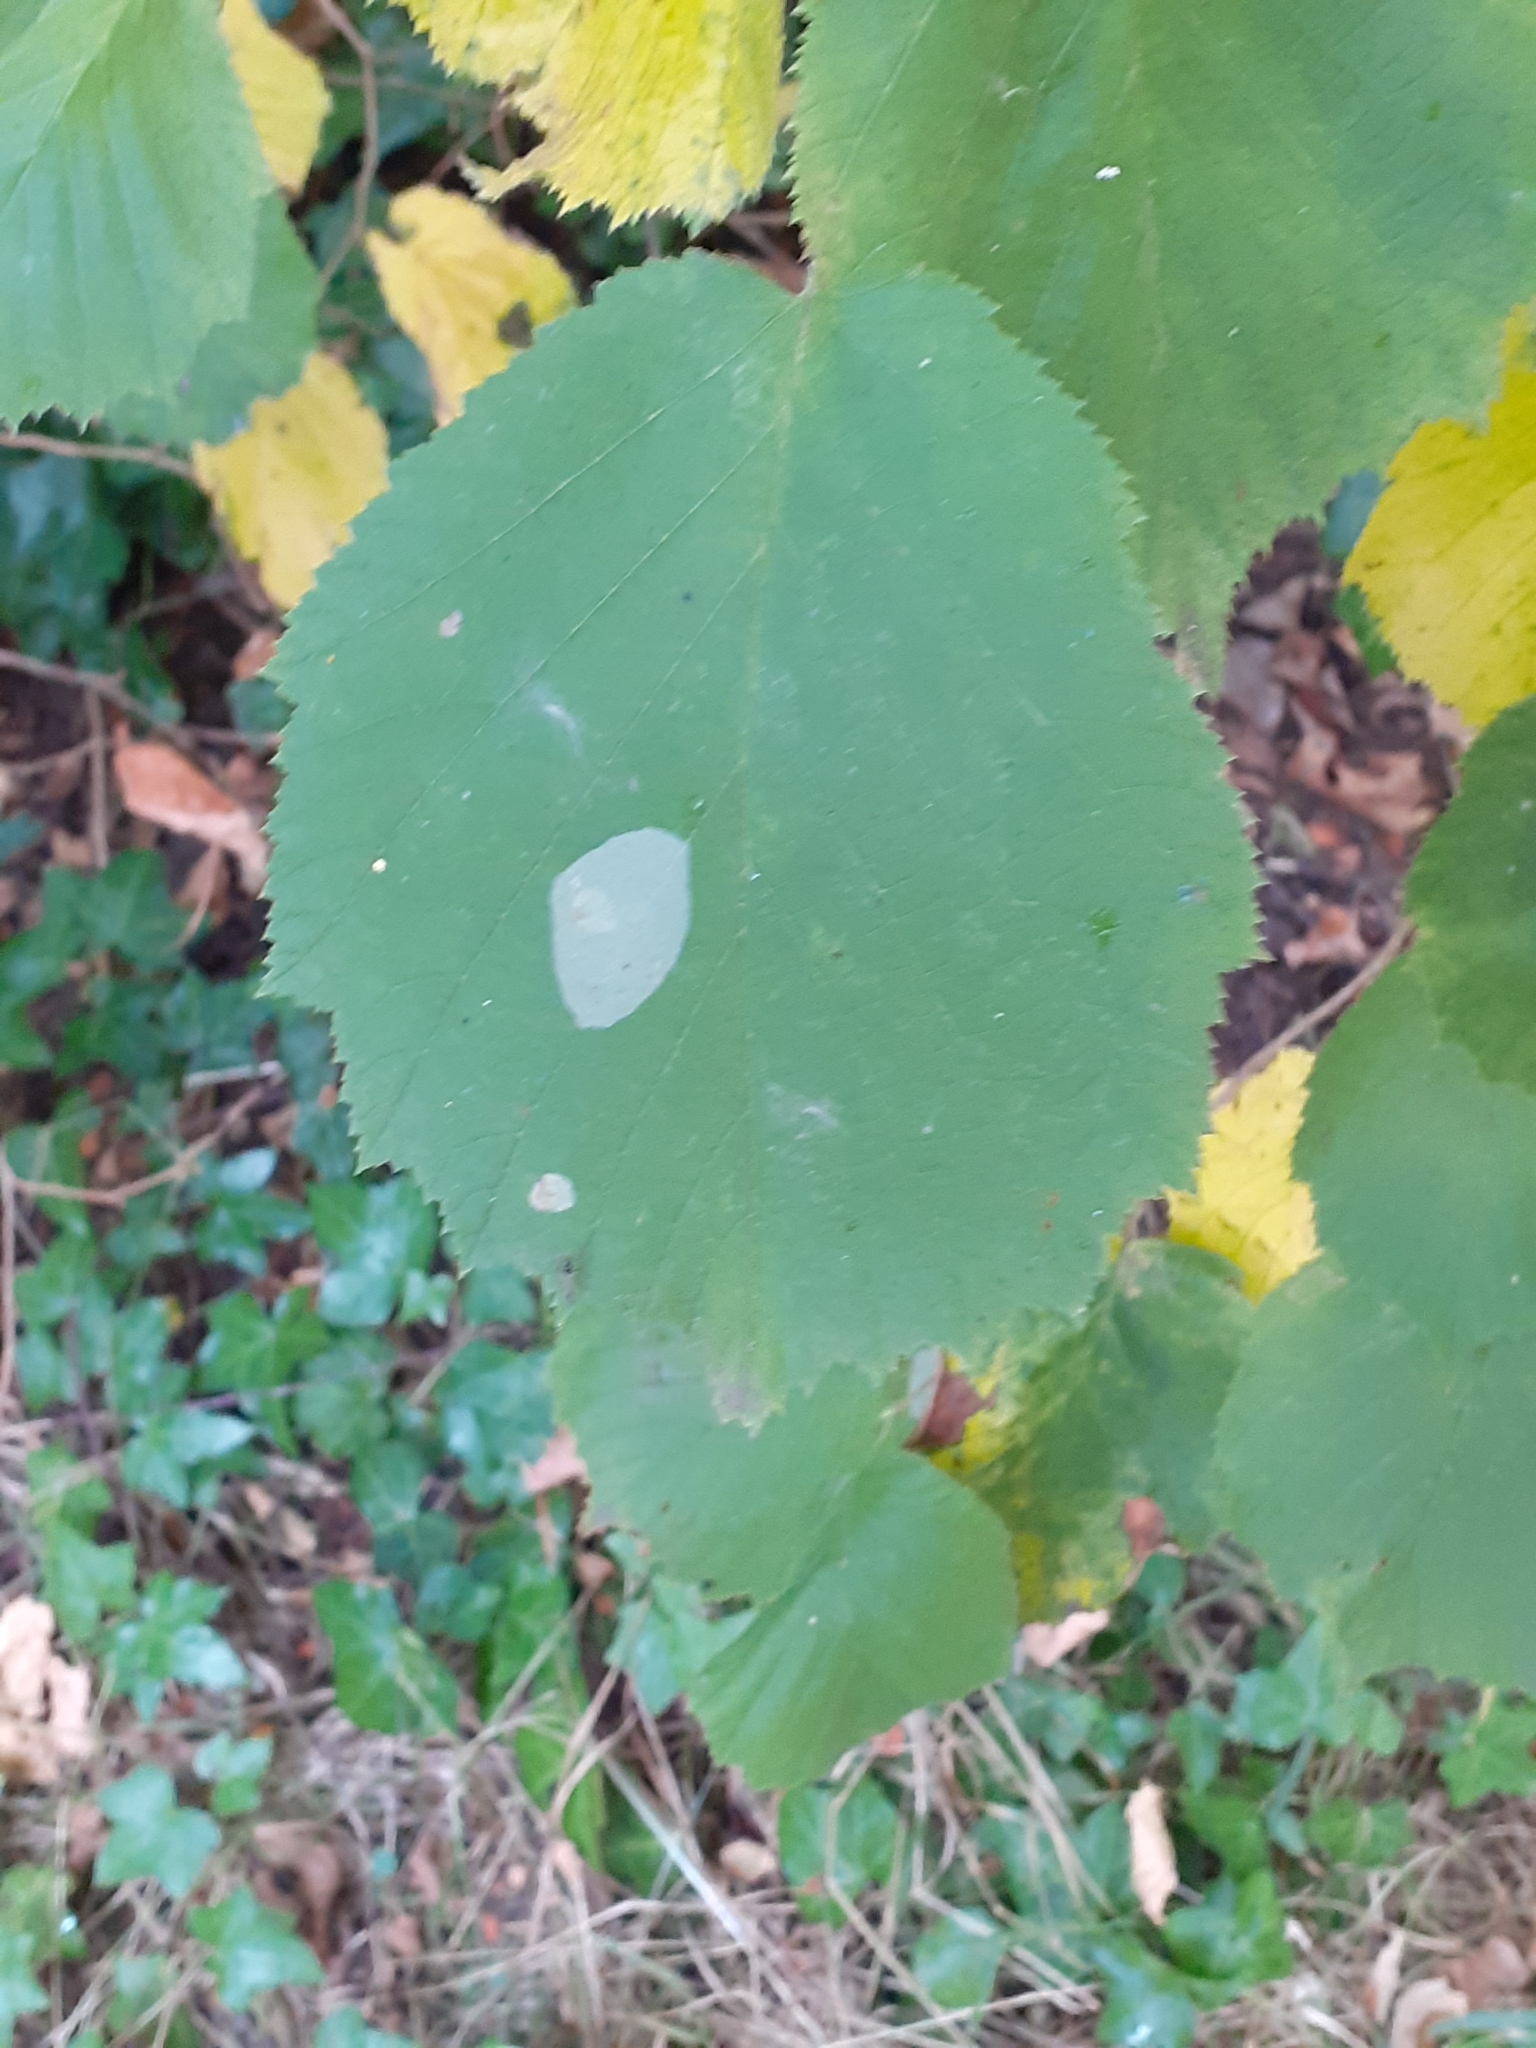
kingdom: Animalia
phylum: Arthropoda
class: Insecta
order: Lepidoptera
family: Gracillariidae
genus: Phyllonorycter
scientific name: Phyllonorycter coryli
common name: Nut-leaf blister moth
